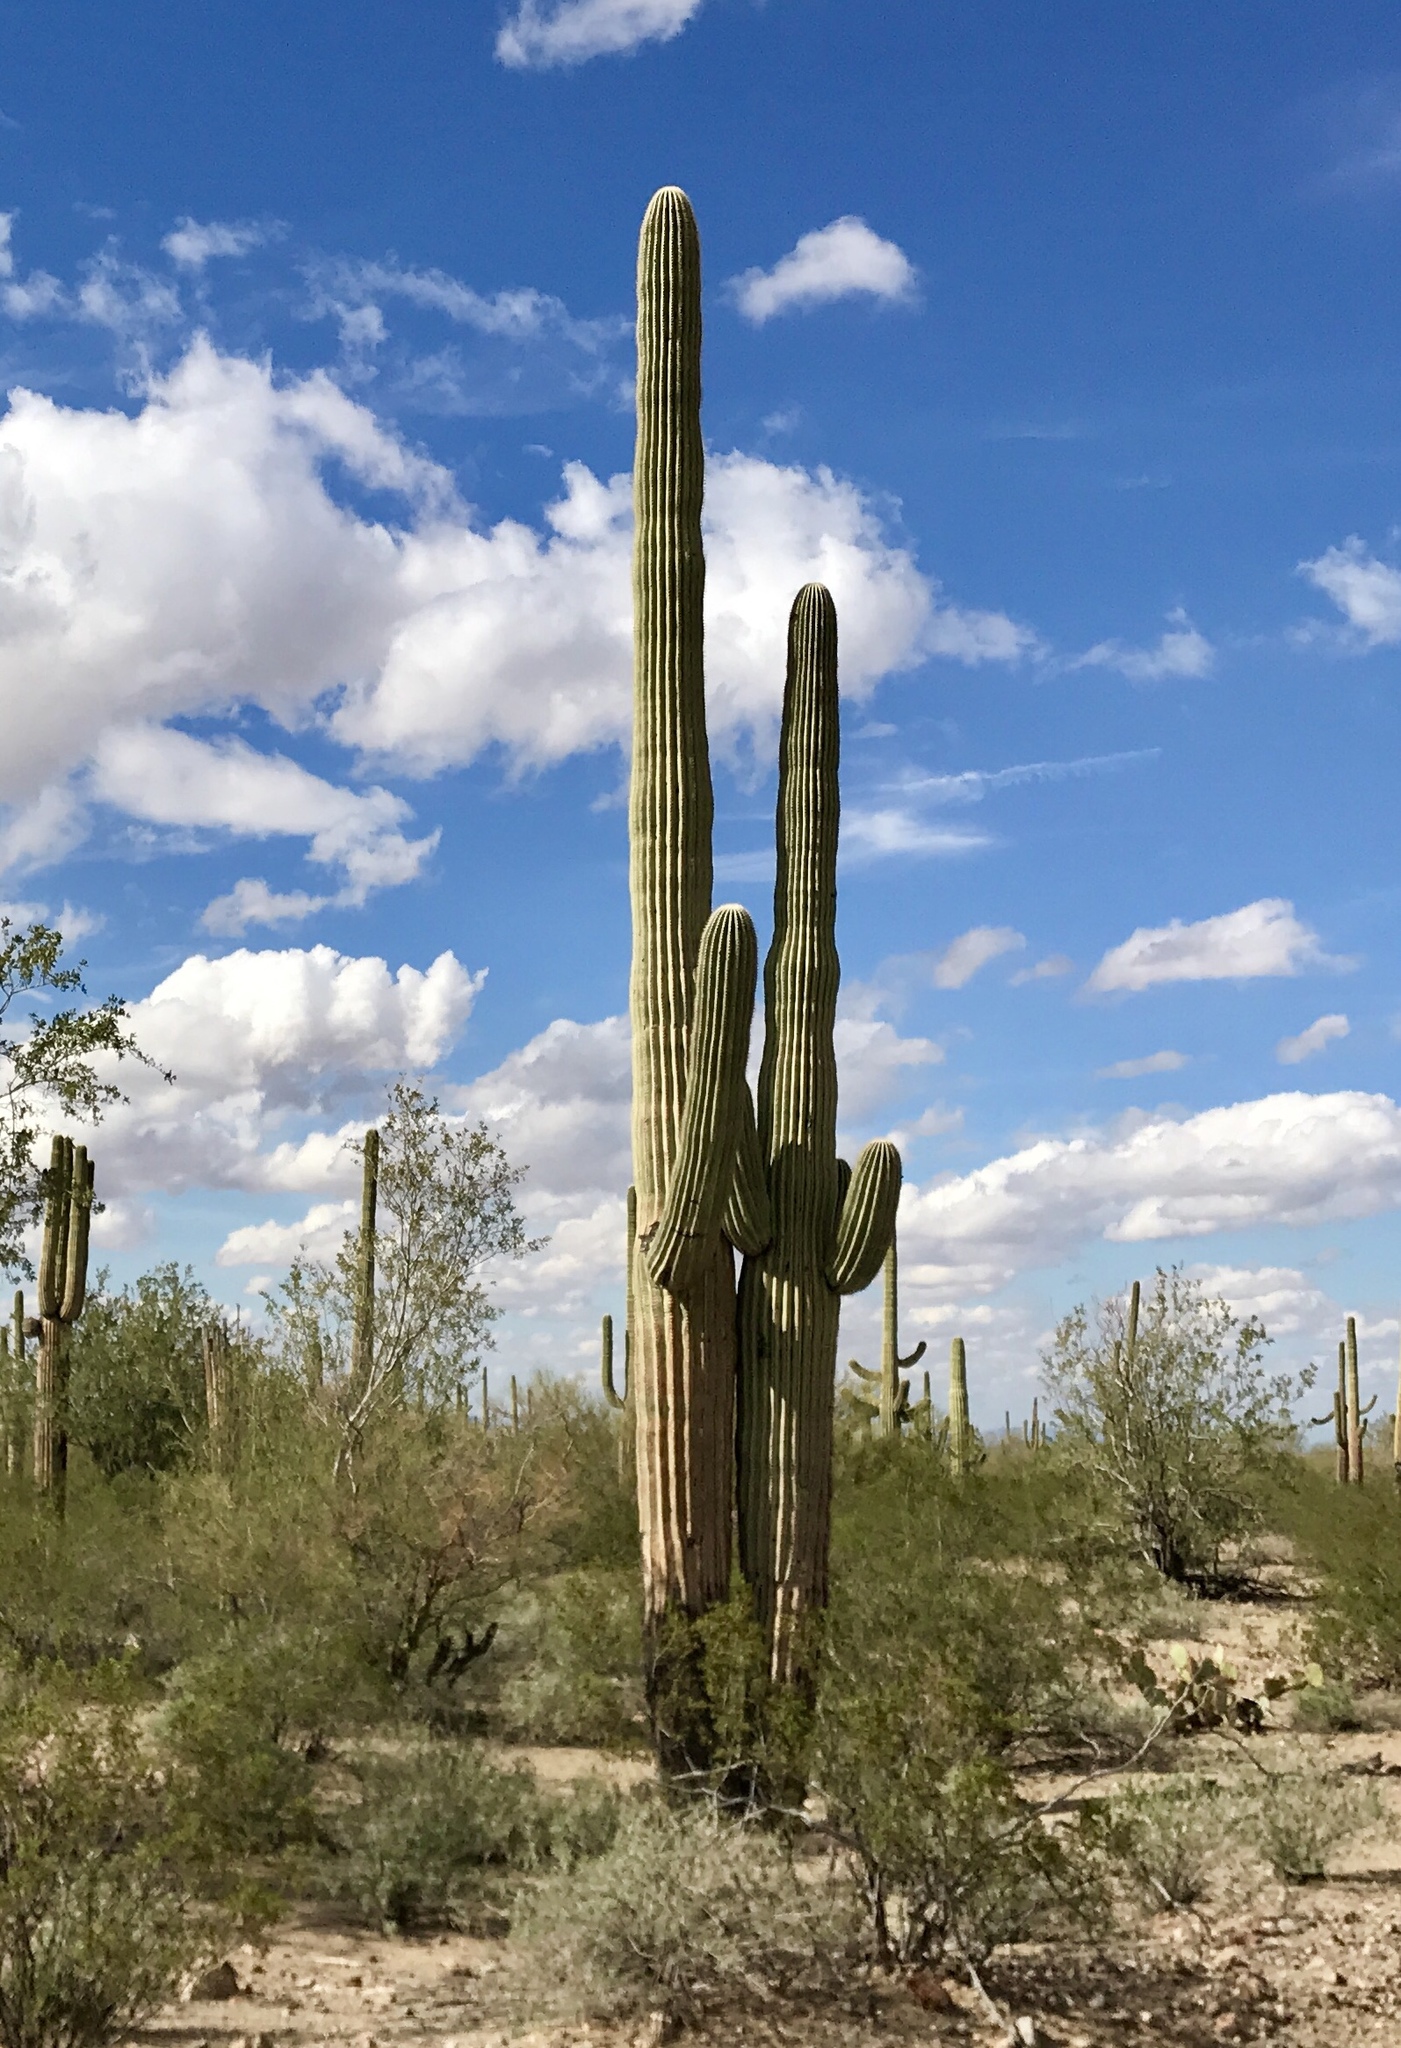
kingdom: Plantae
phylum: Tracheophyta
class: Magnoliopsida
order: Caryophyllales
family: Cactaceae
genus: Carnegiea
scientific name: Carnegiea gigantea
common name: Saguaro
